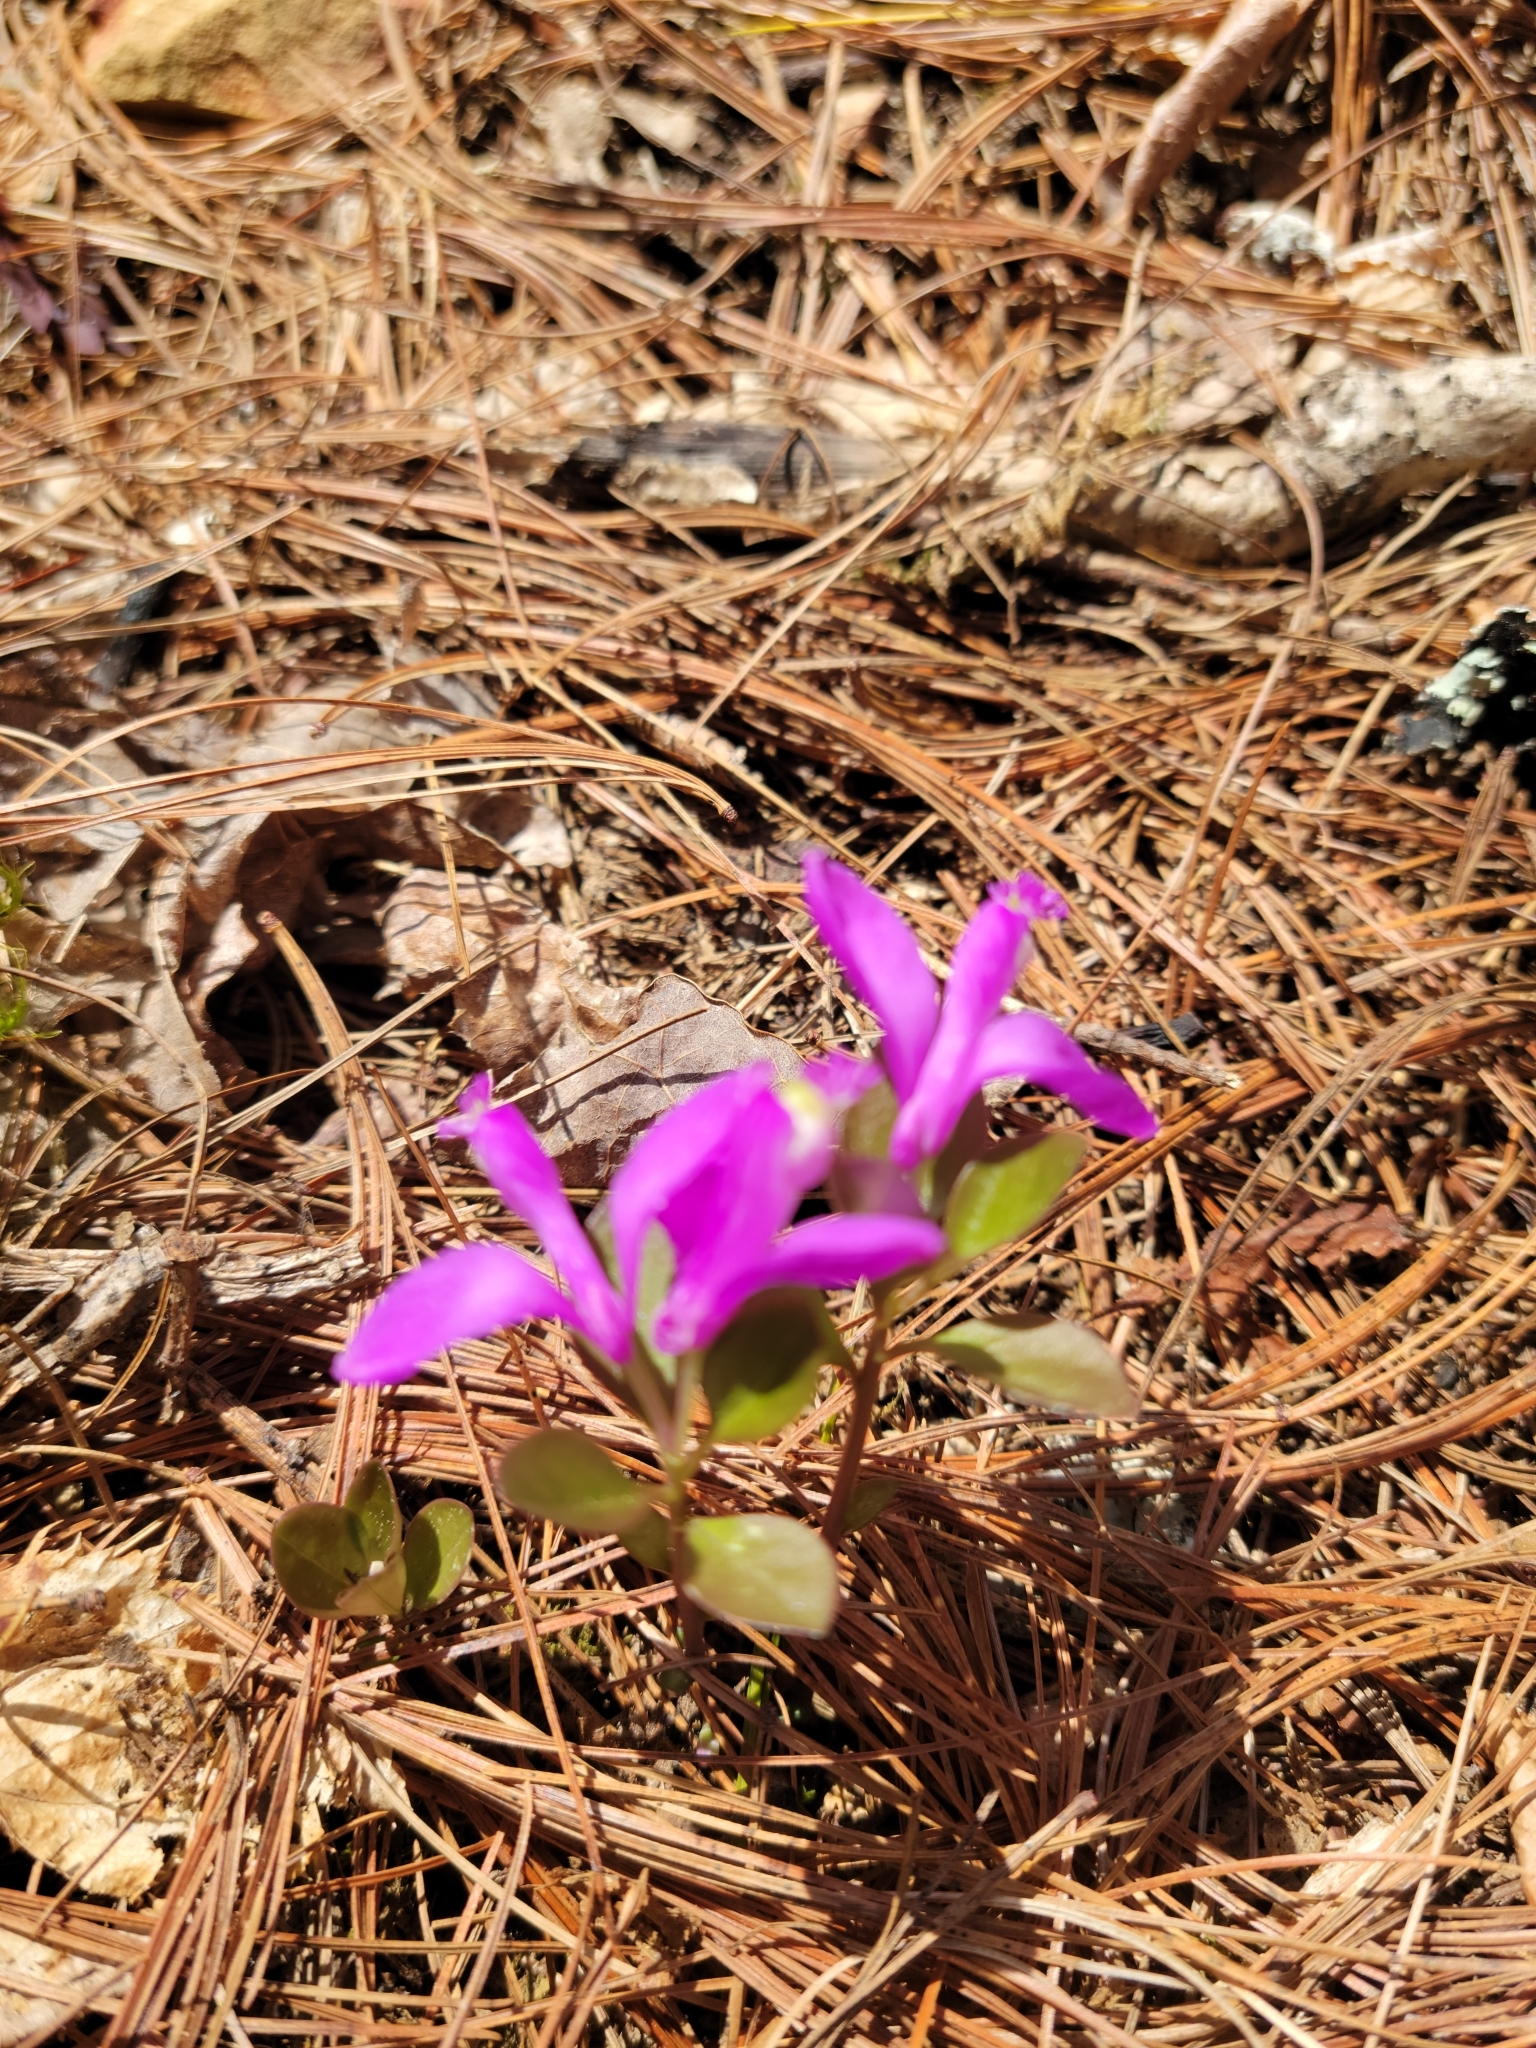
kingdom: Plantae
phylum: Tracheophyta
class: Magnoliopsida
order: Fabales
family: Polygalaceae
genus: Polygaloides
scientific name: Polygaloides paucifolia
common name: Bird-on-the-wing
